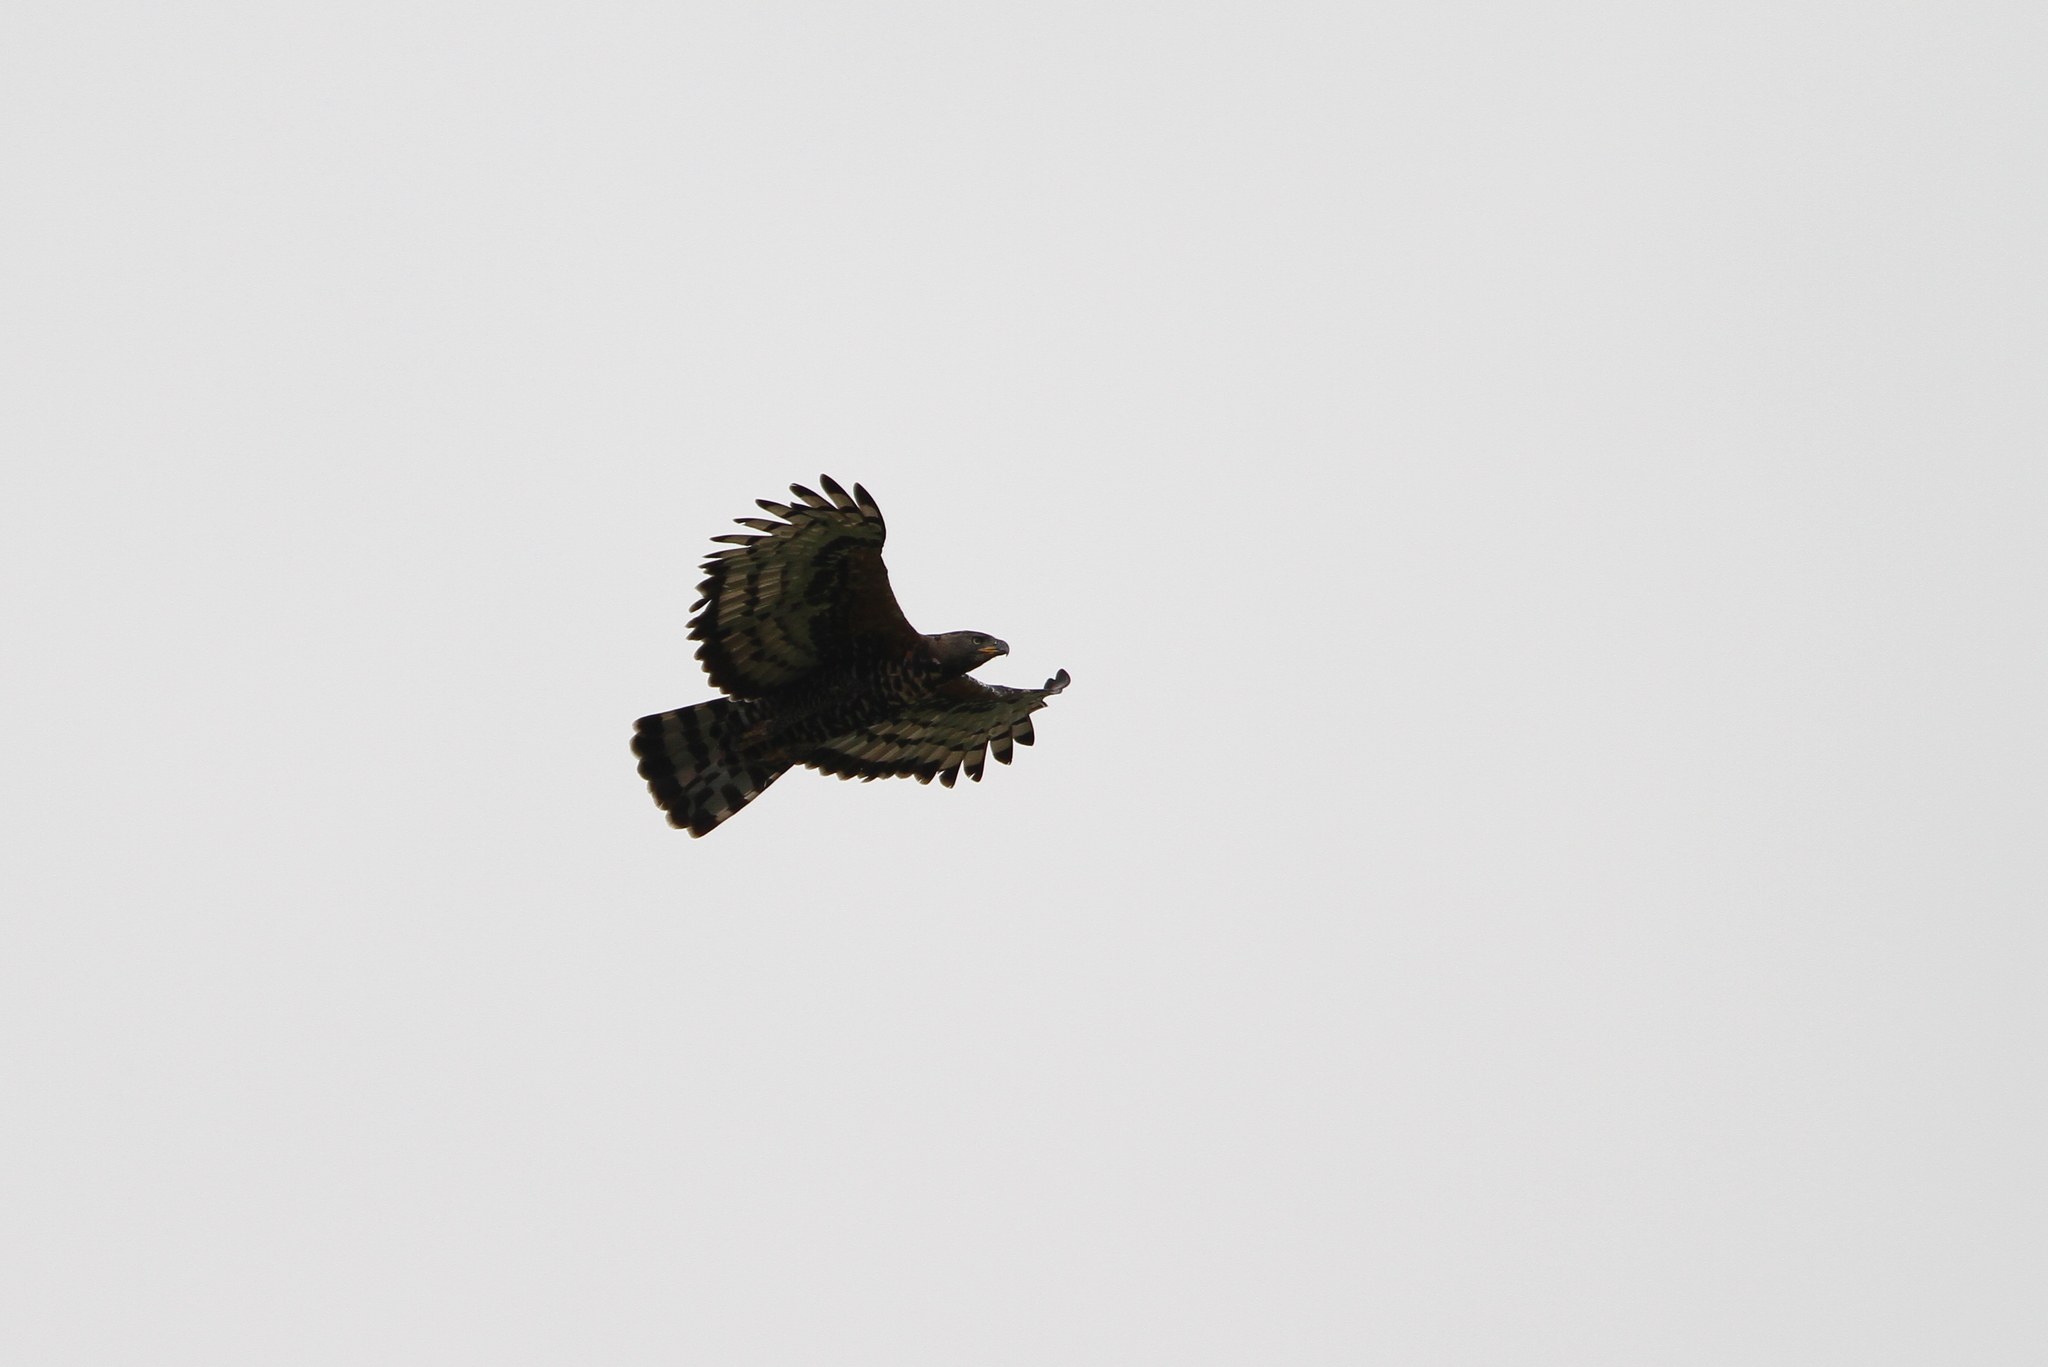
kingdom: Animalia
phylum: Chordata
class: Aves
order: Accipitriformes
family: Accipitridae
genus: Stephanoaetus
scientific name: Stephanoaetus coronatus
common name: Crowned eagle
